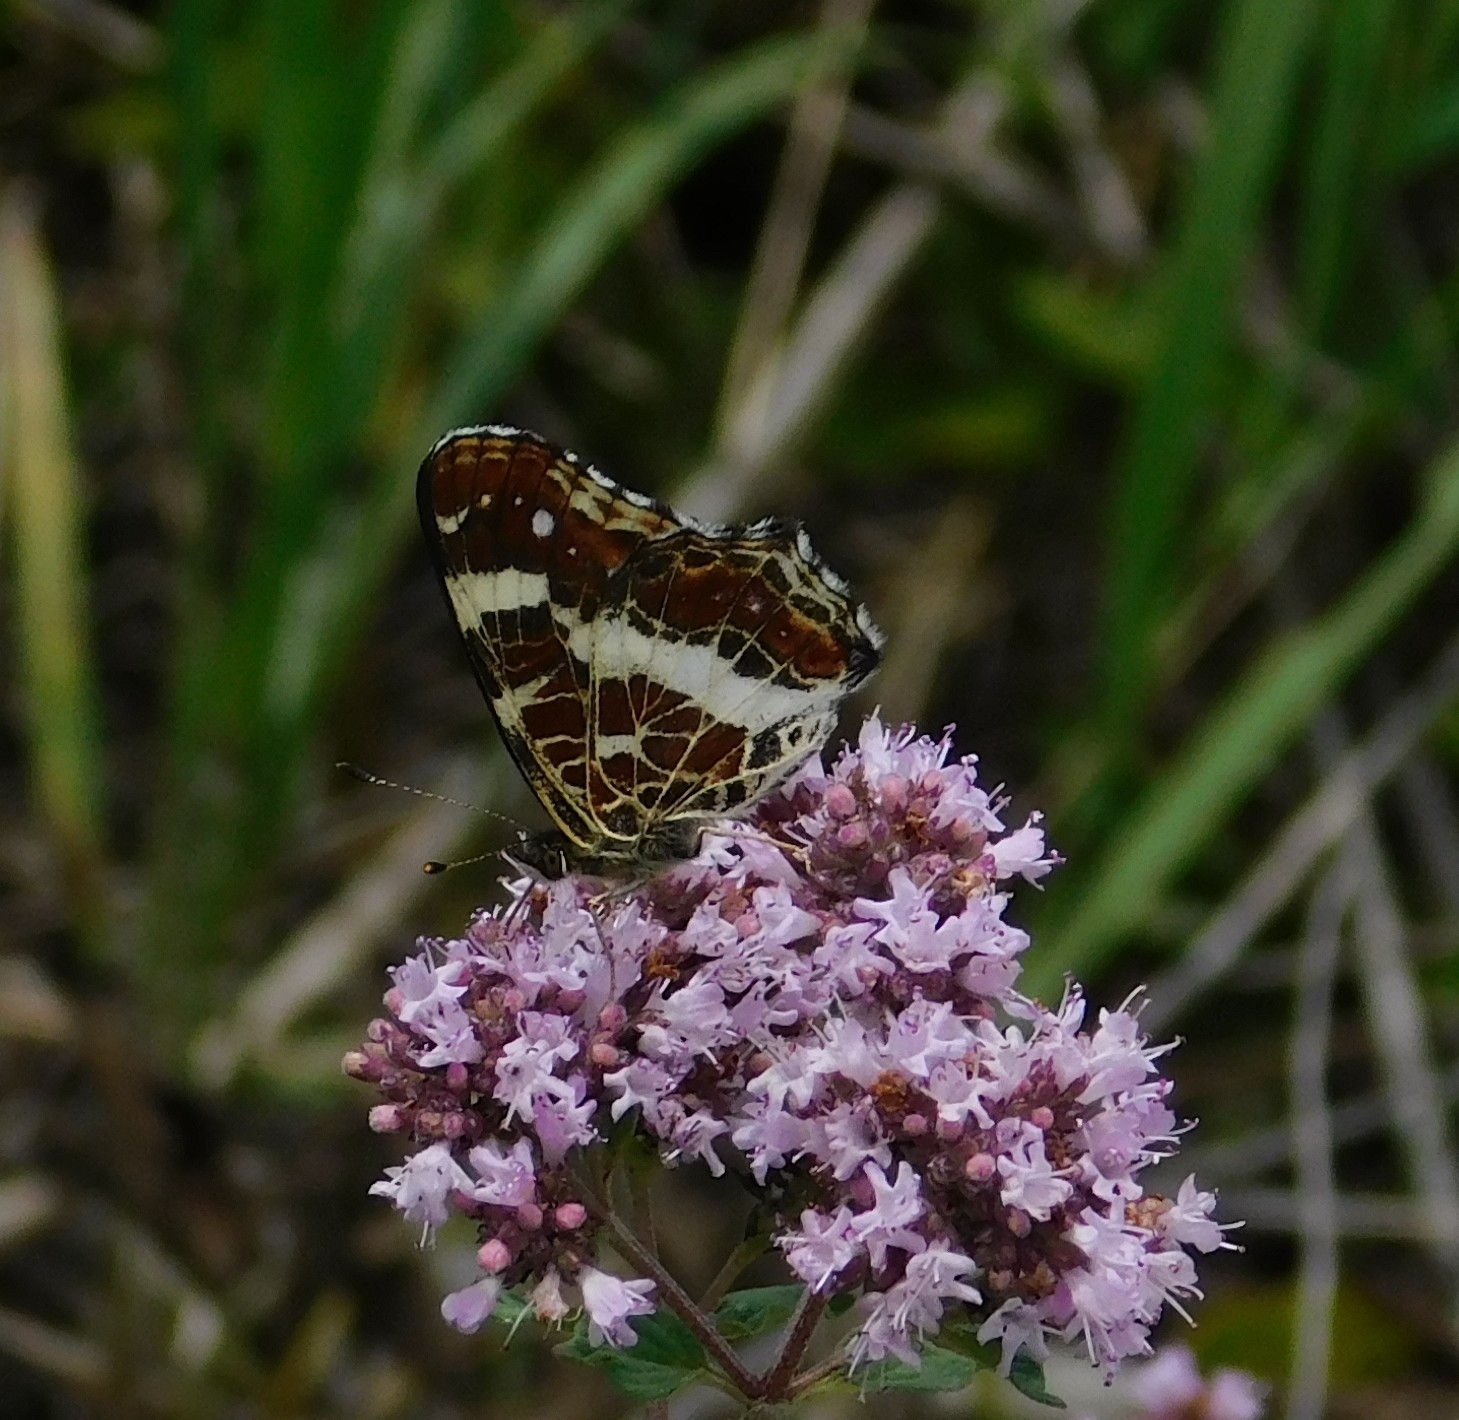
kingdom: Animalia
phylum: Arthropoda
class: Insecta
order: Lepidoptera
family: Nymphalidae
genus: Araschnia
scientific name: Araschnia levana
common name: Map butterfly
